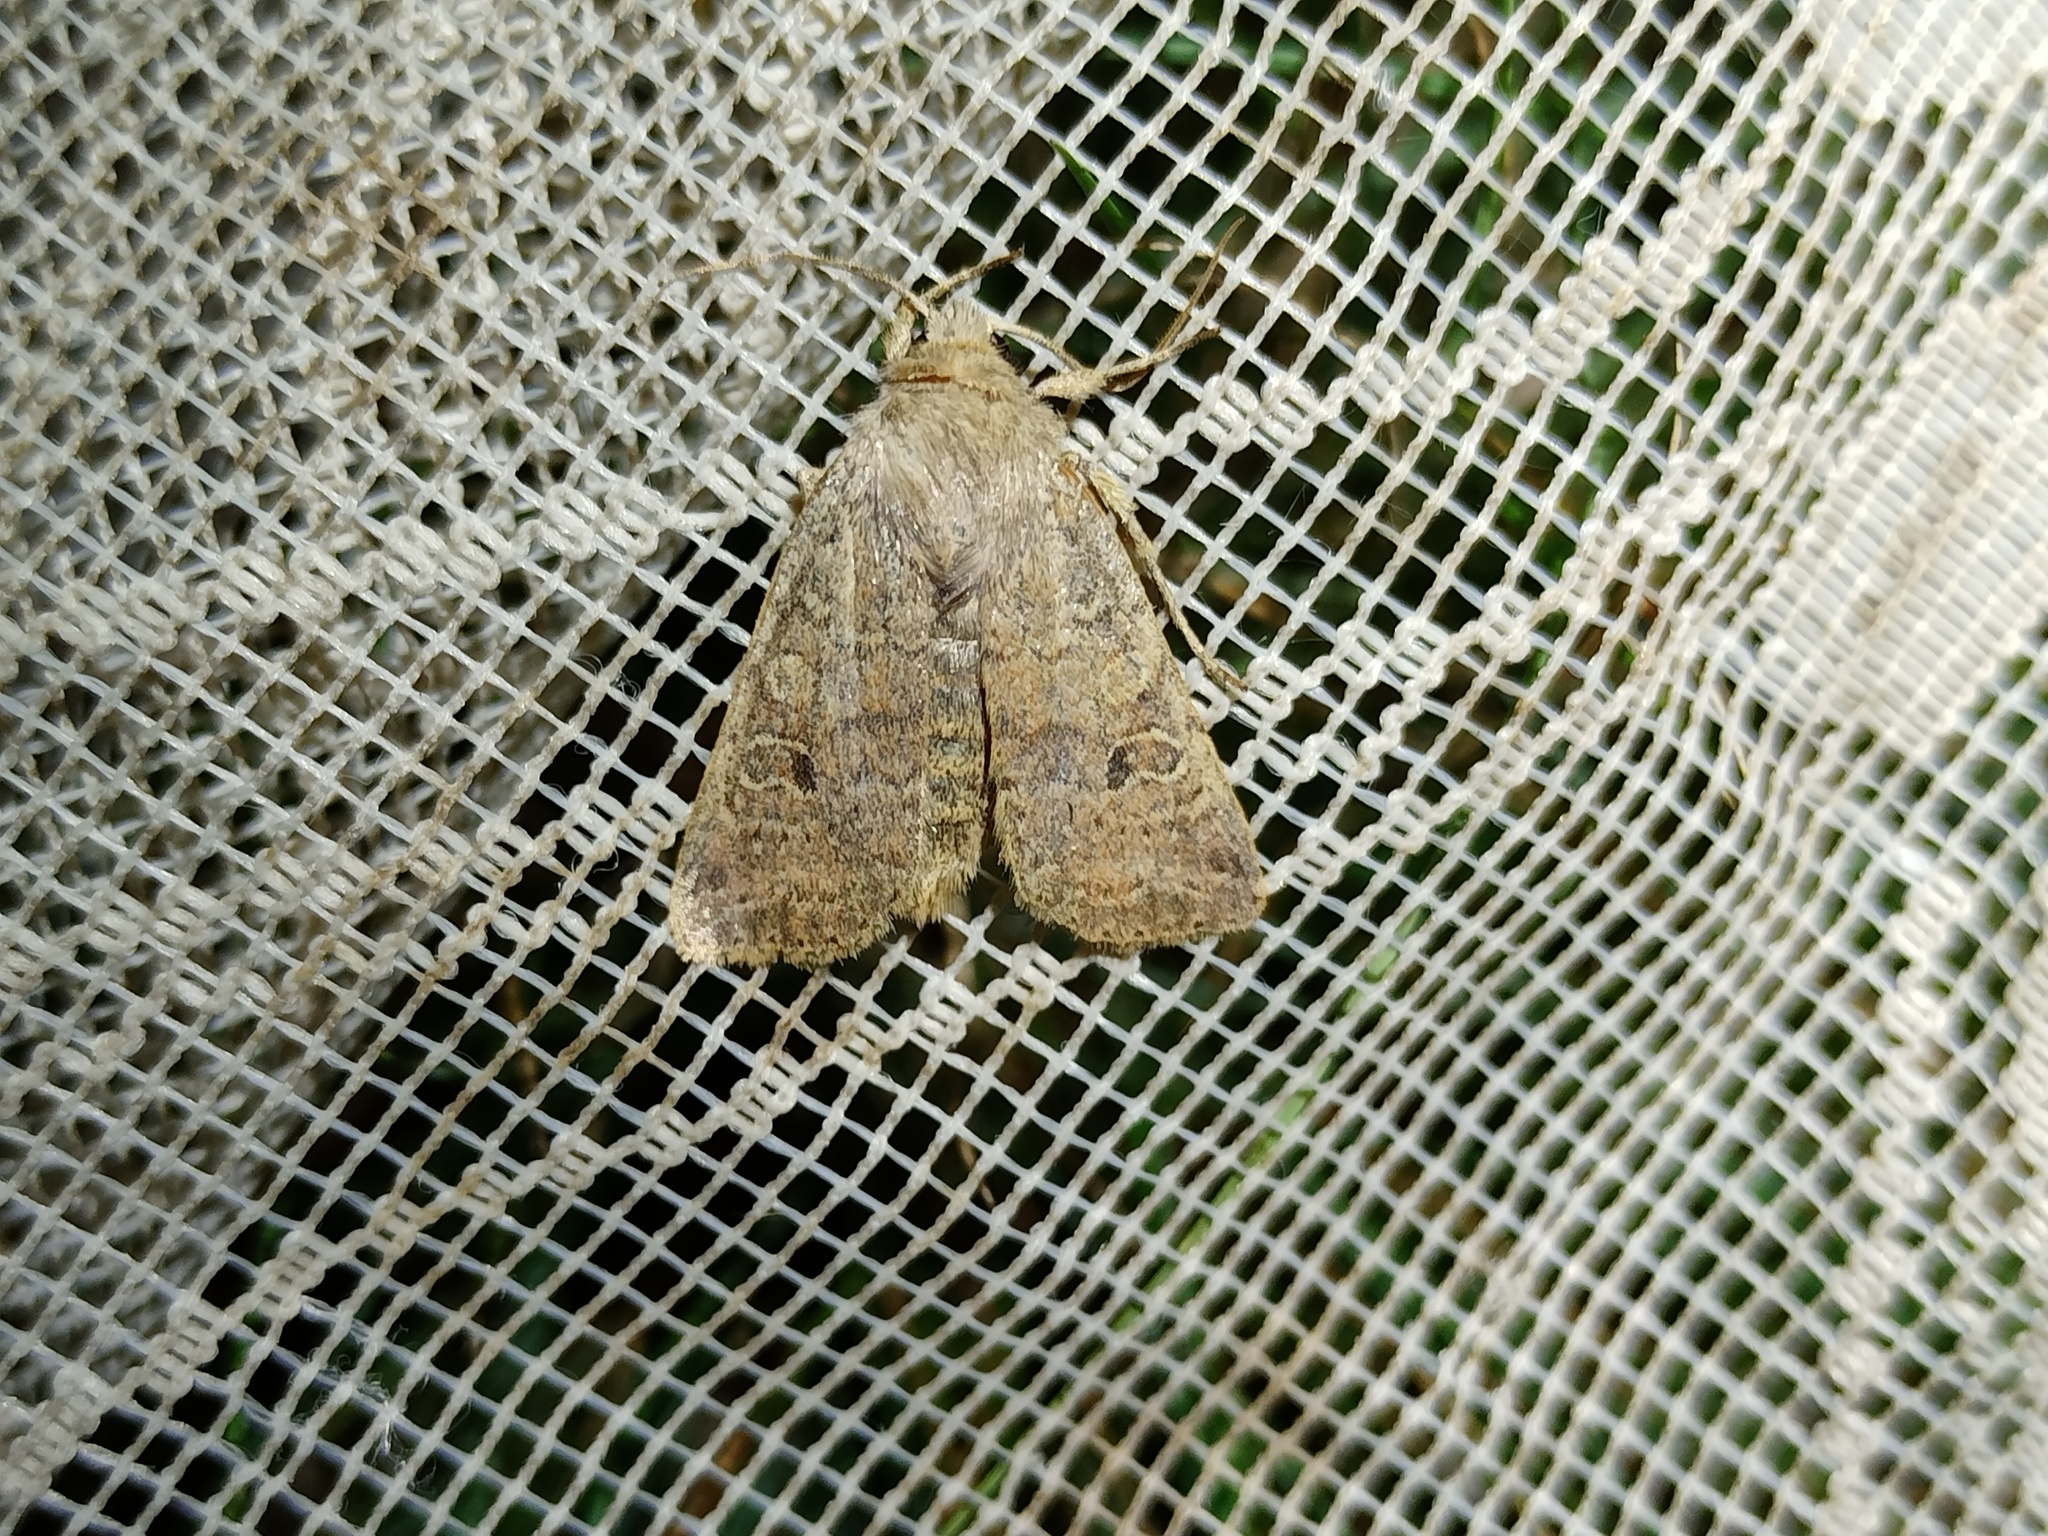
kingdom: Animalia
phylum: Arthropoda
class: Insecta
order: Lepidoptera
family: Noctuidae
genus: Agrochola
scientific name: Agrochola laevis
